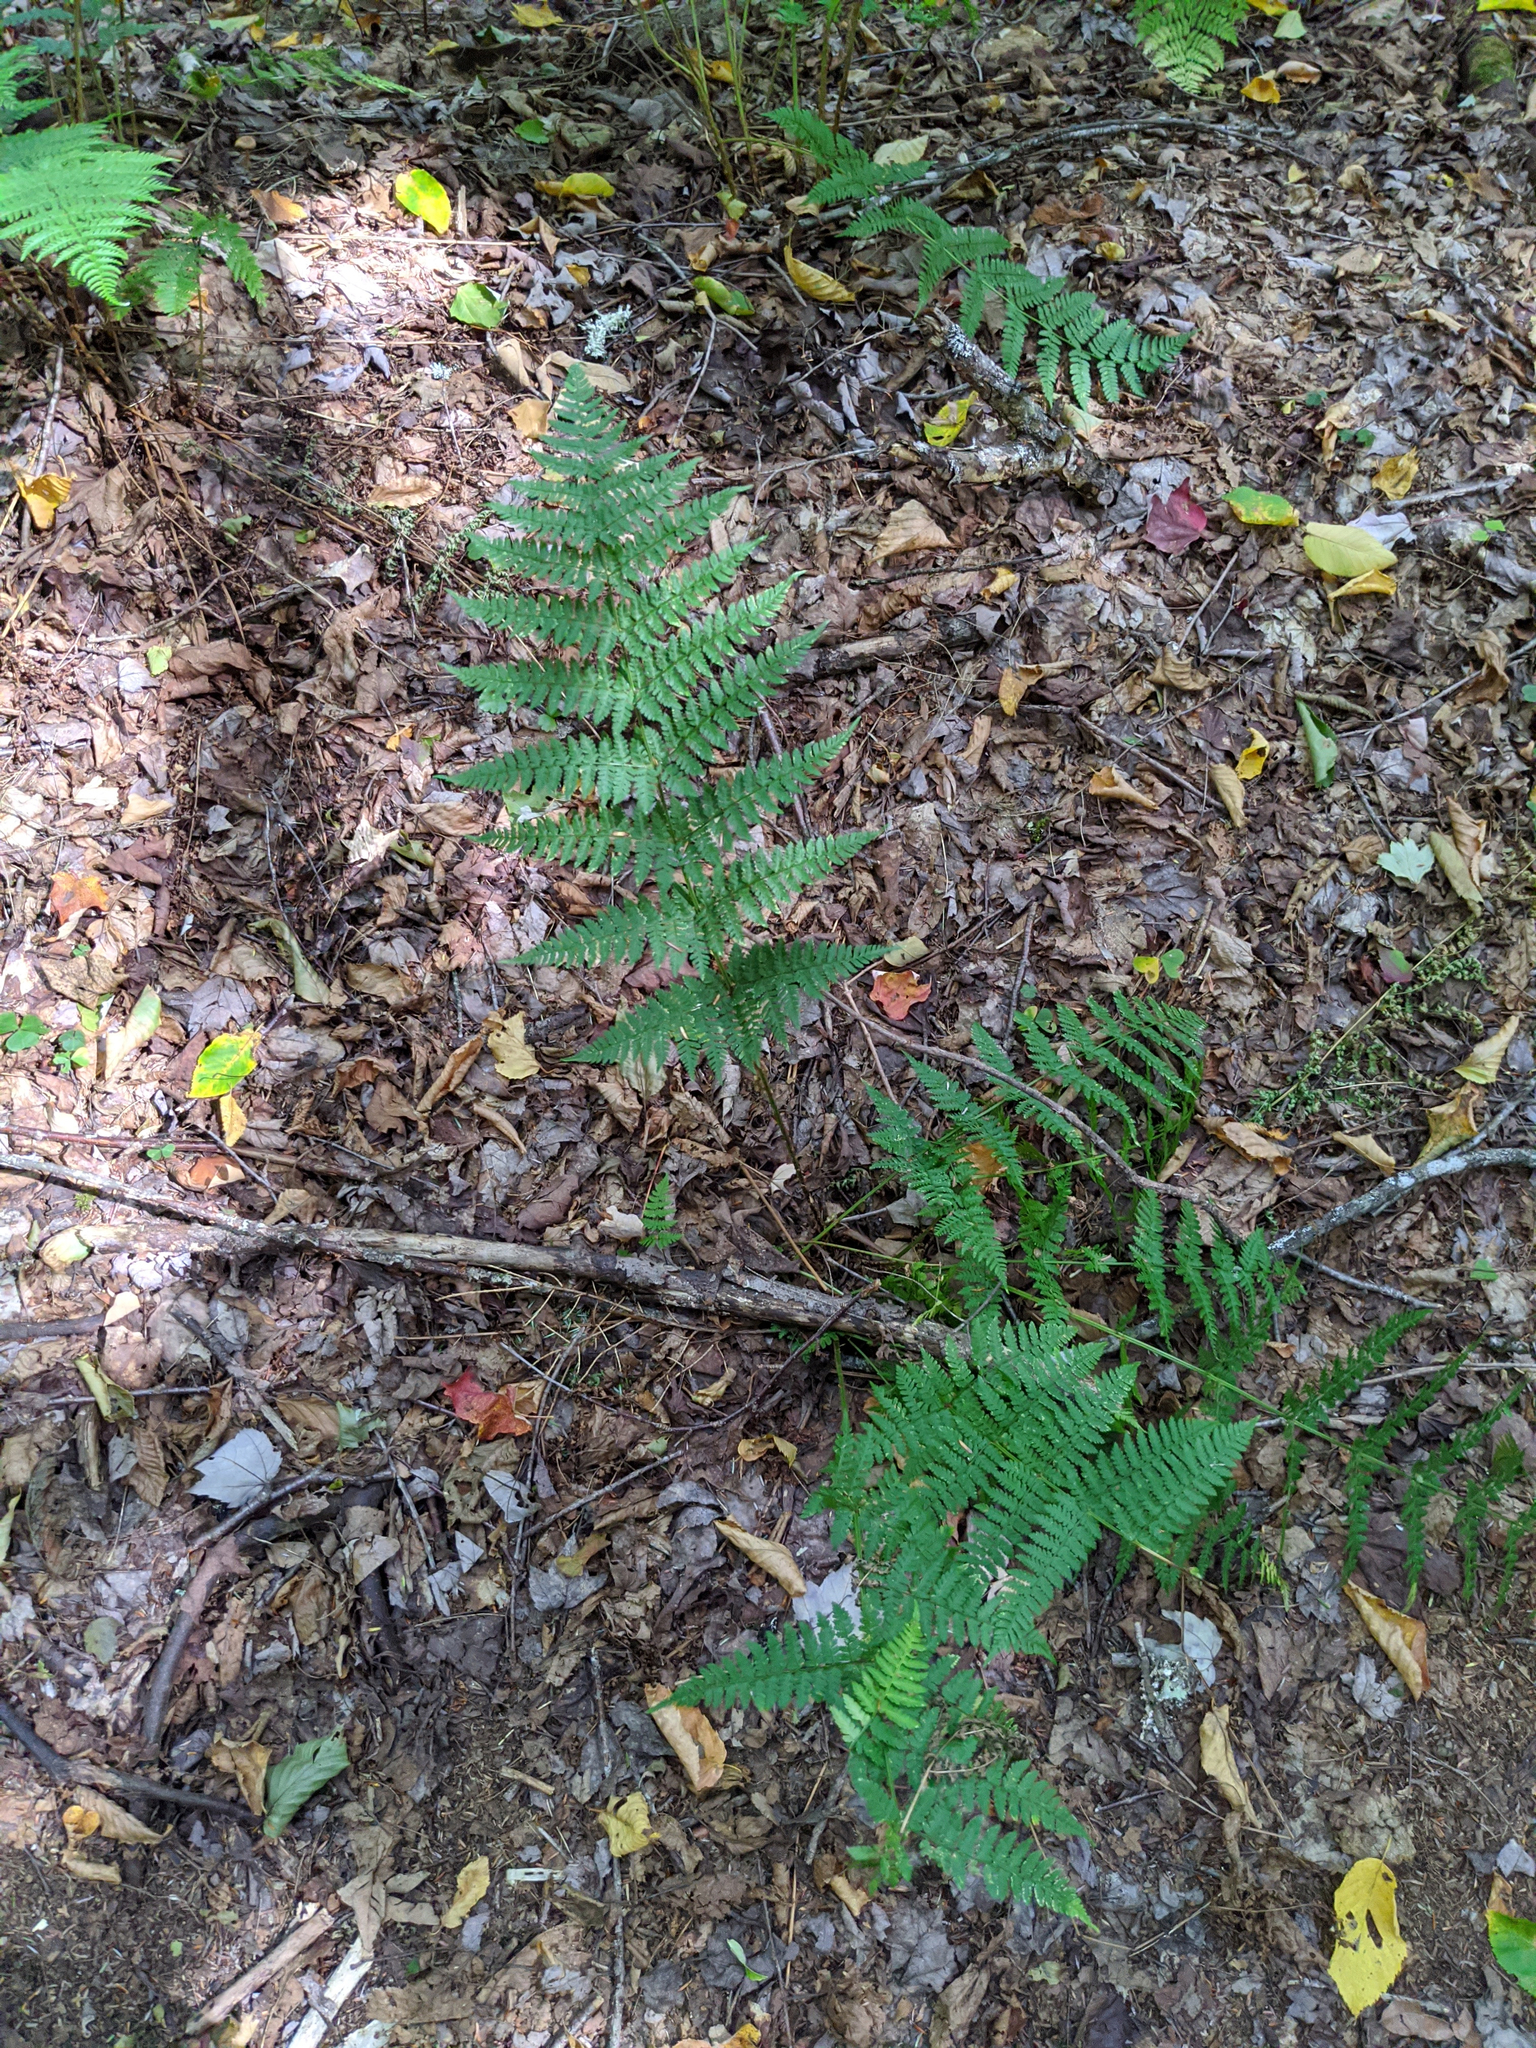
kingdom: Plantae
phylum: Tracheophyta
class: Polypodiopsida
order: Polypodiales
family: Dryopteridaceae
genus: Dryopteris
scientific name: Dryopteris intermedia
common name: Evergreen wood fern
